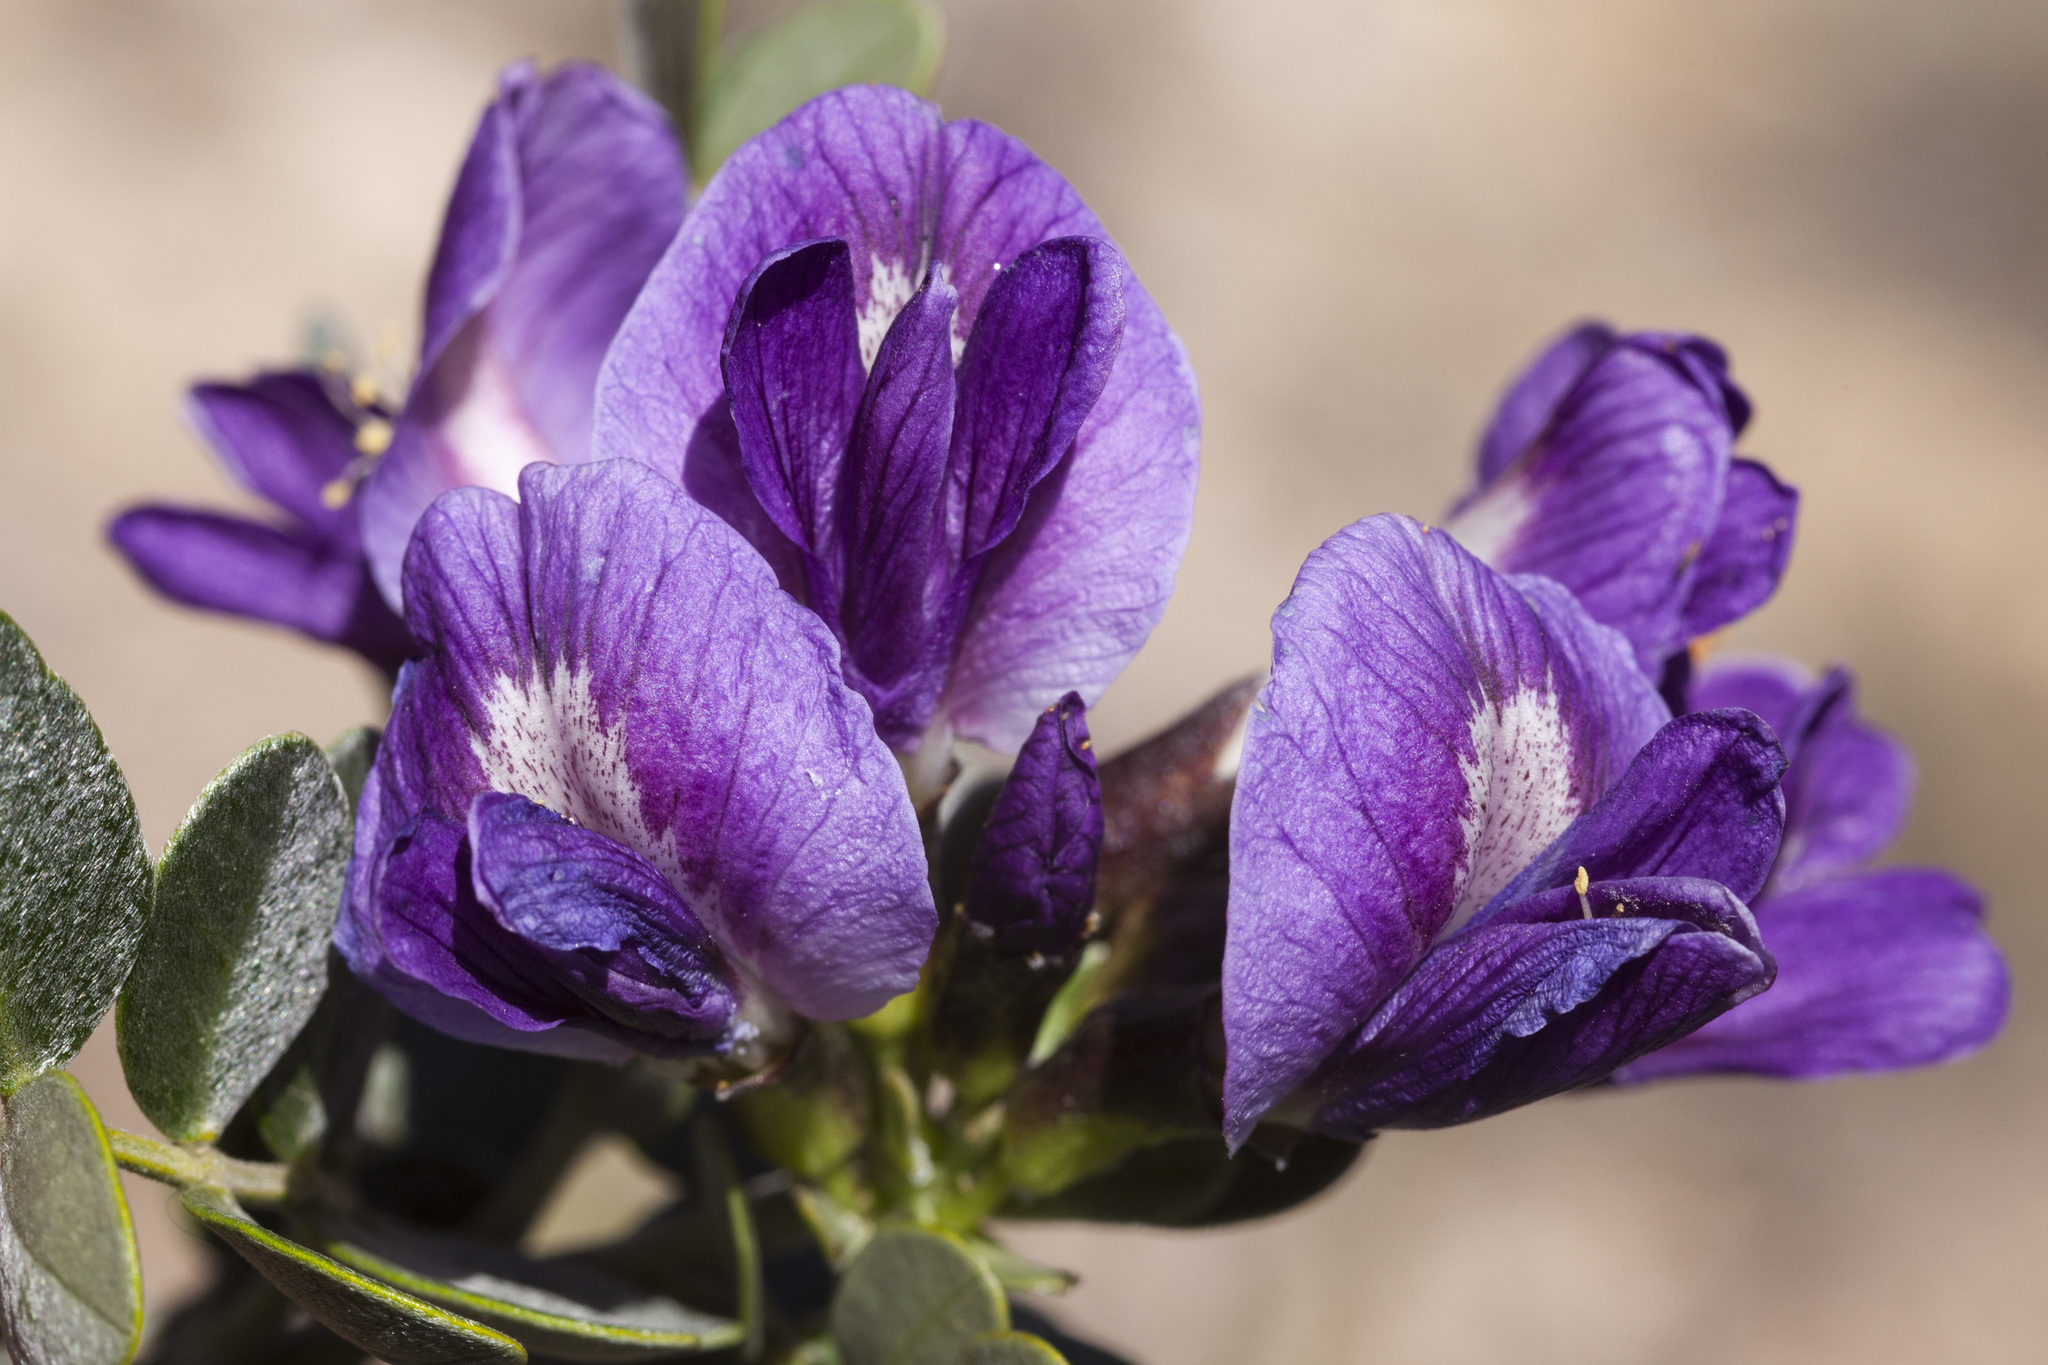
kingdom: Plantae
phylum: Tracheophyta
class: Magnoliopsida
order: Fabales
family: Fabaceae
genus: Dermatophyllum
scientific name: Dermatophyllum gypsophilum
